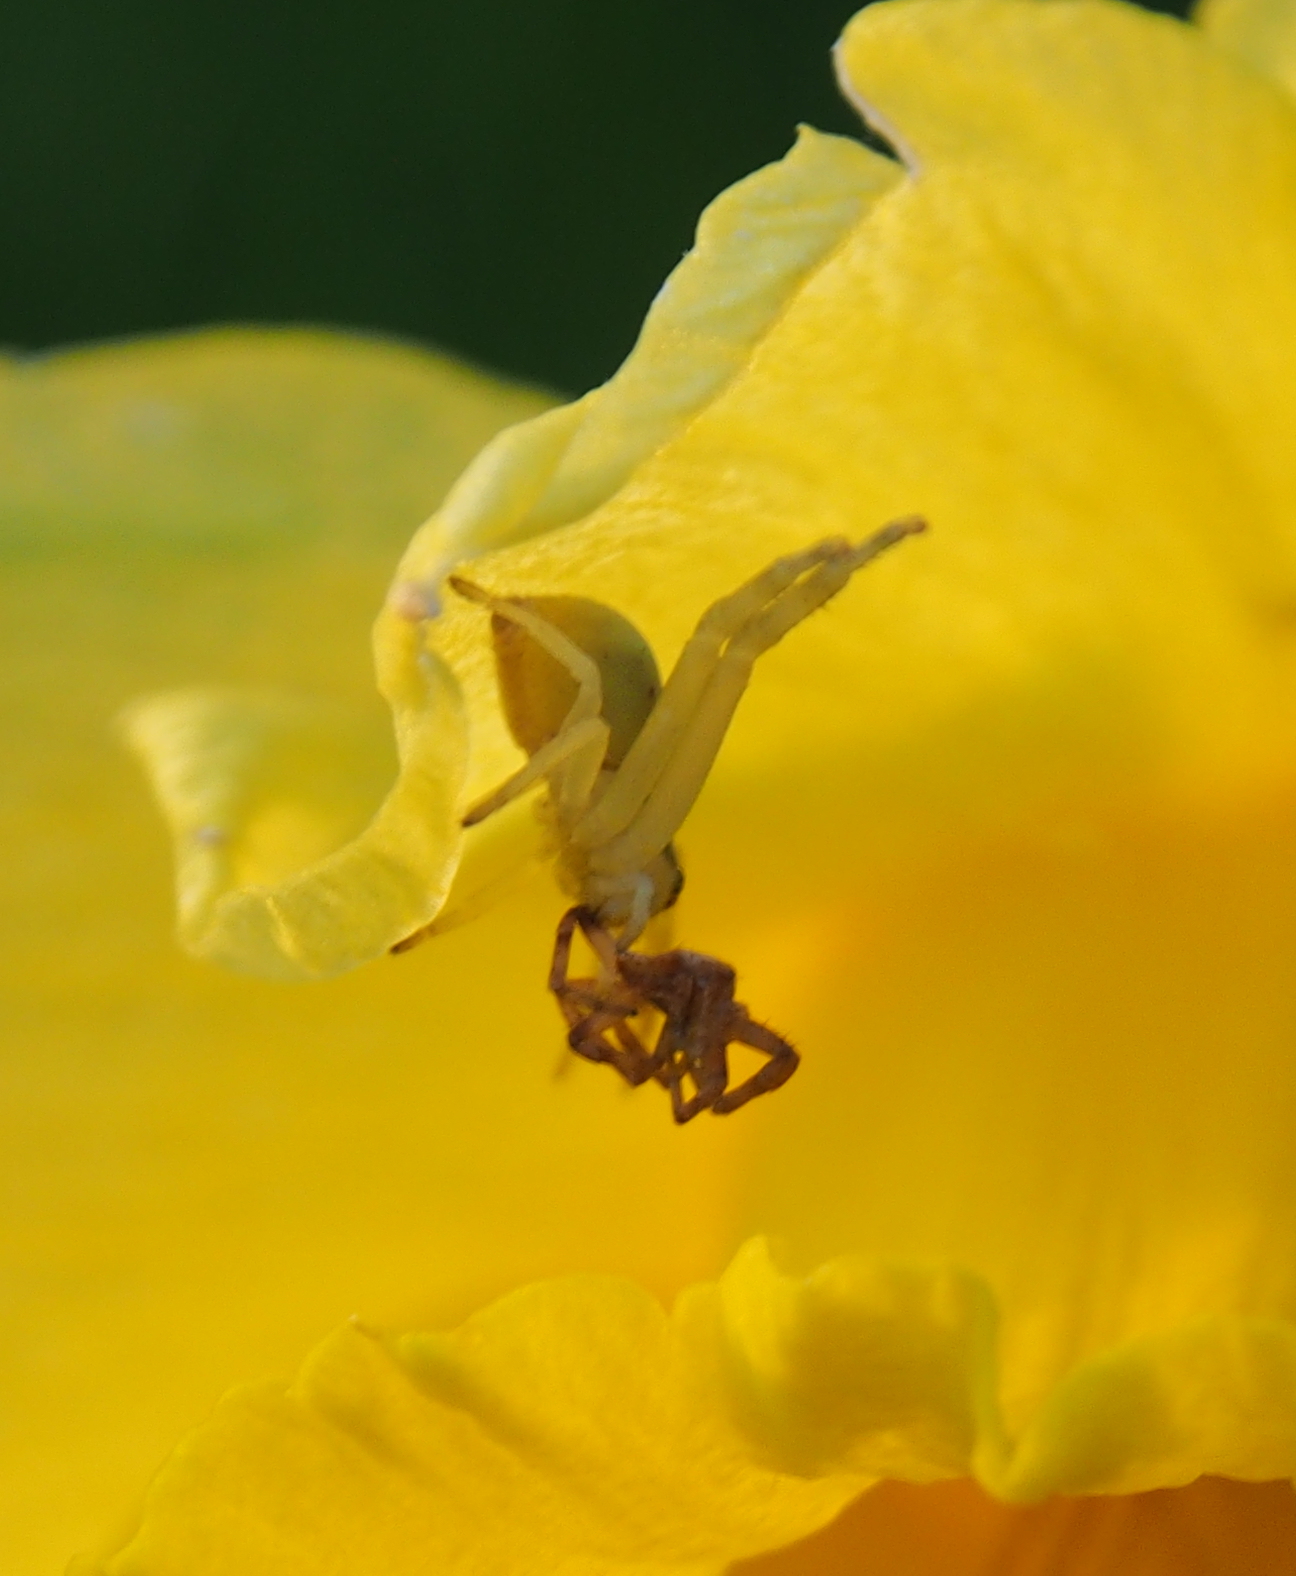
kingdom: Animalia
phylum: Arthropoda
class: Arachnida
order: Araneae
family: Thomisidae
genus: Misumena
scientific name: Misumena vatia
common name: Goldenrod crab spider
